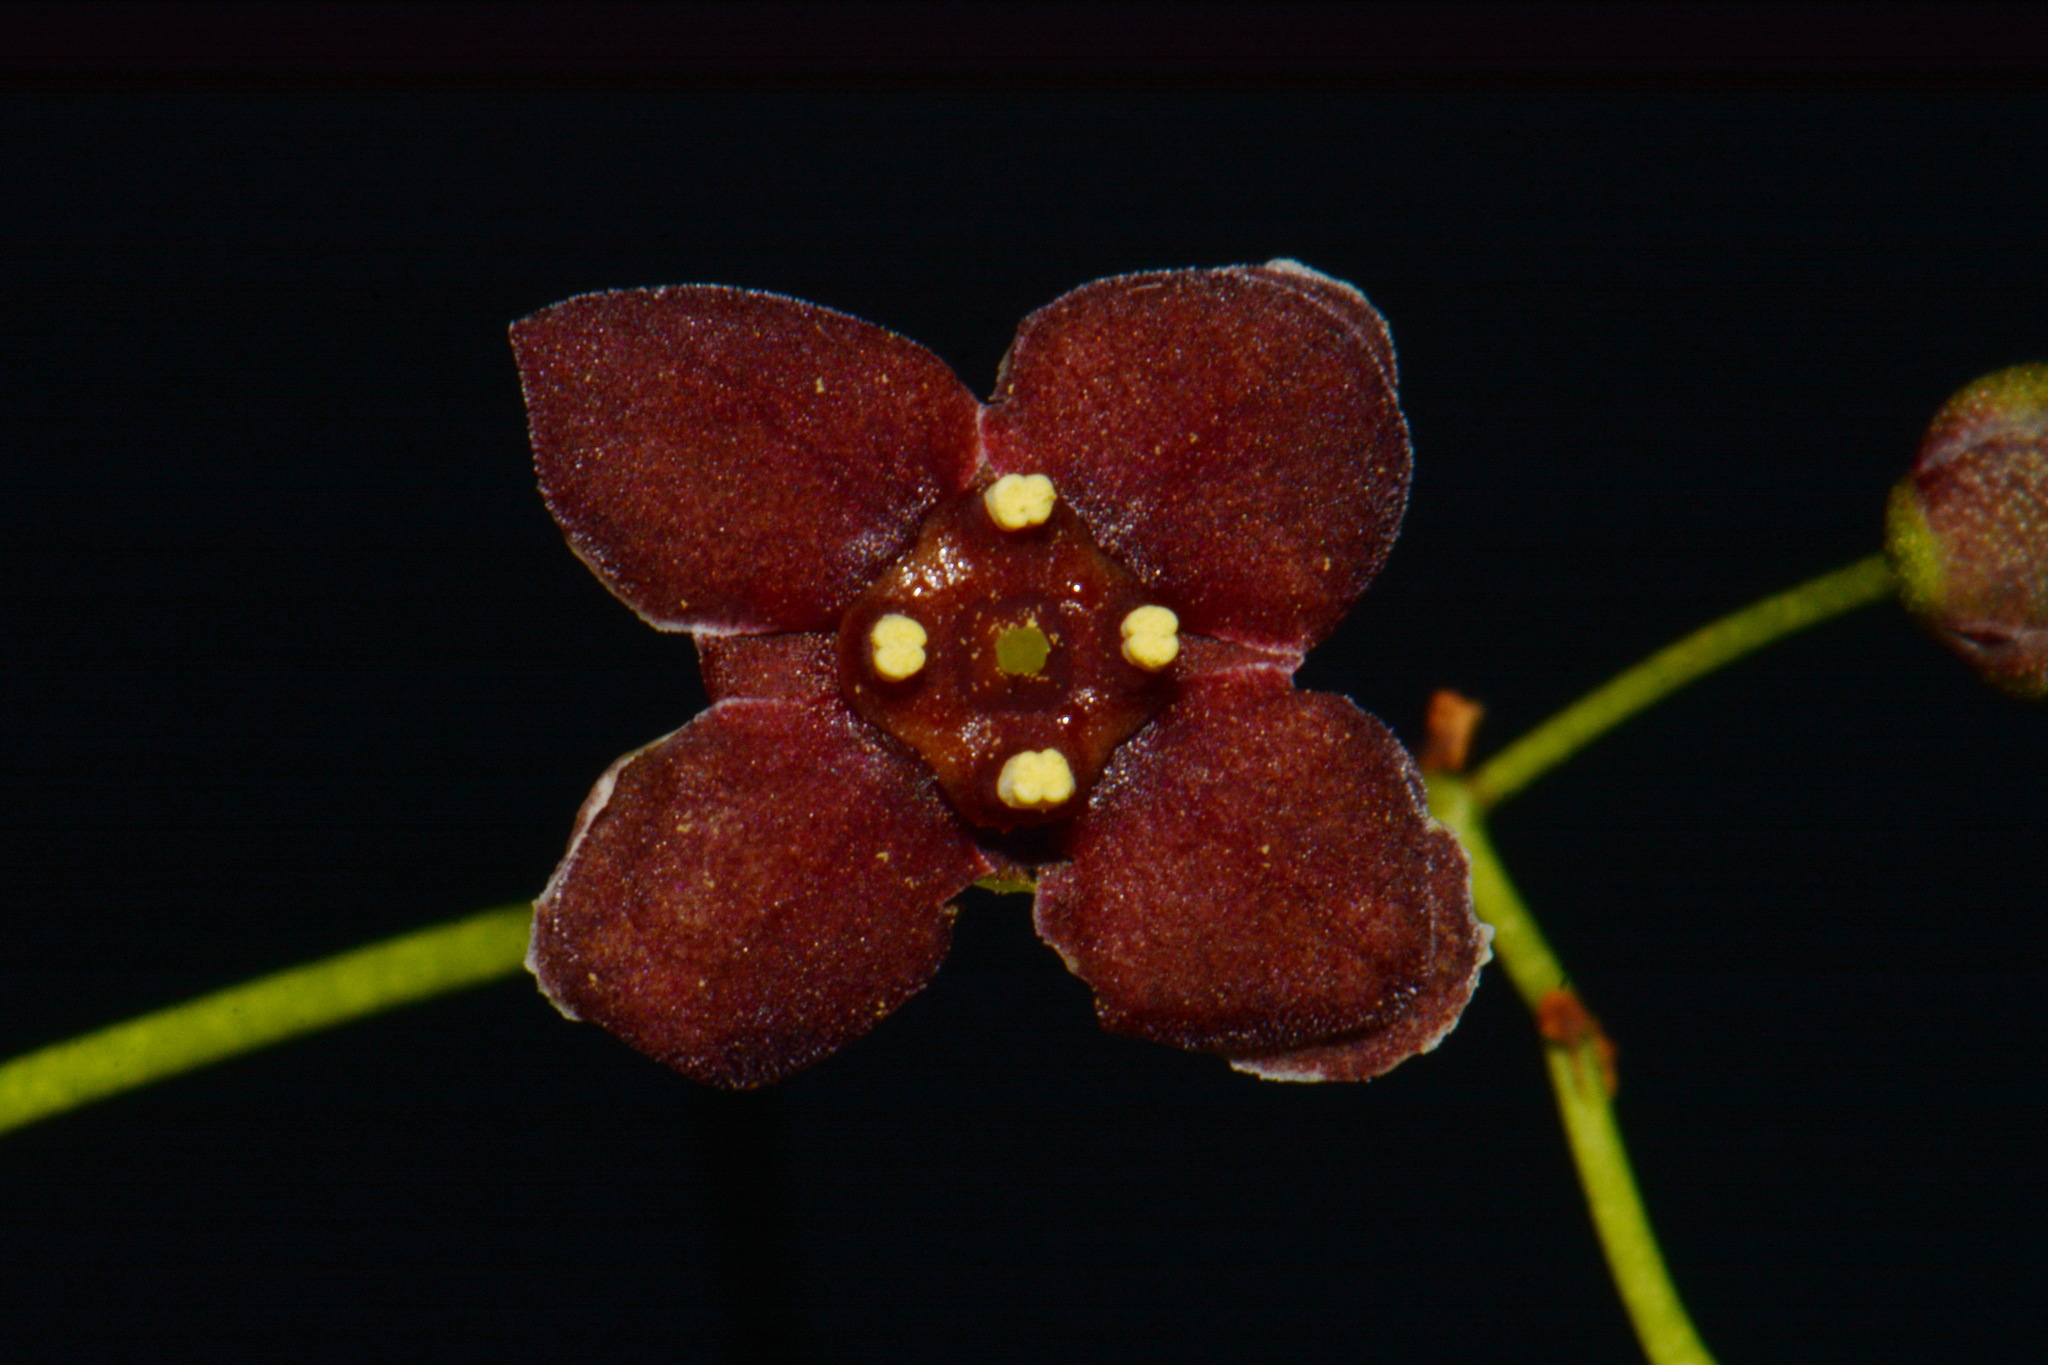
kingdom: Plantae
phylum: Tracheophyta
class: Magnoliopsida
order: Celastrales
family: Celastraceae
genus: Euonymus
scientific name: Euonymus atropurpureus
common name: Eastern wahoo
